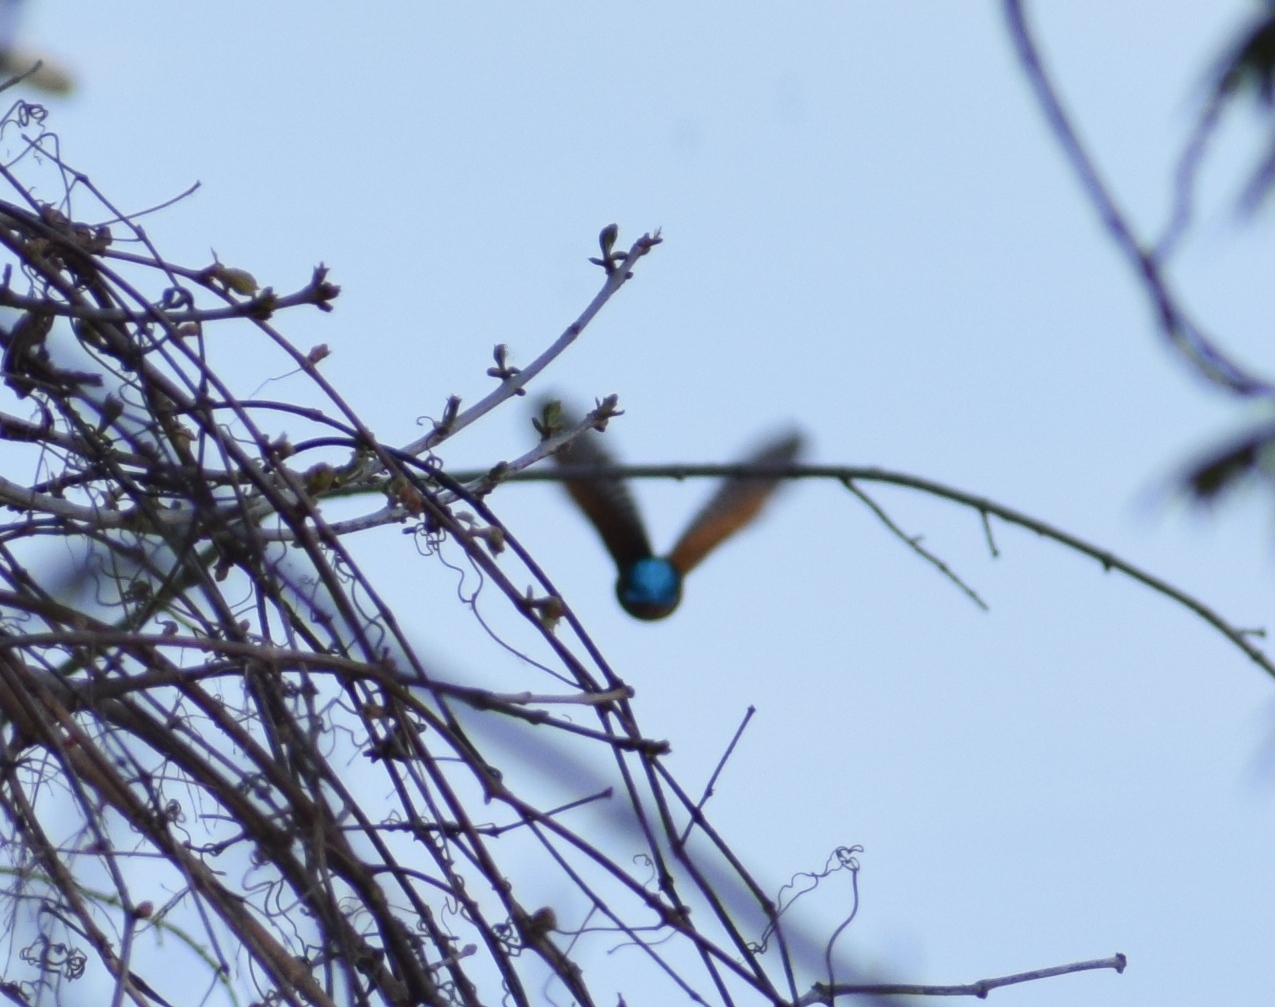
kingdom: Animalia
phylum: Chordata
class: Aves
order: Coraciiformes
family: Alcedinidae
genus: Alcedo
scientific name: Alcedo atthis
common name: Common kingfisher
